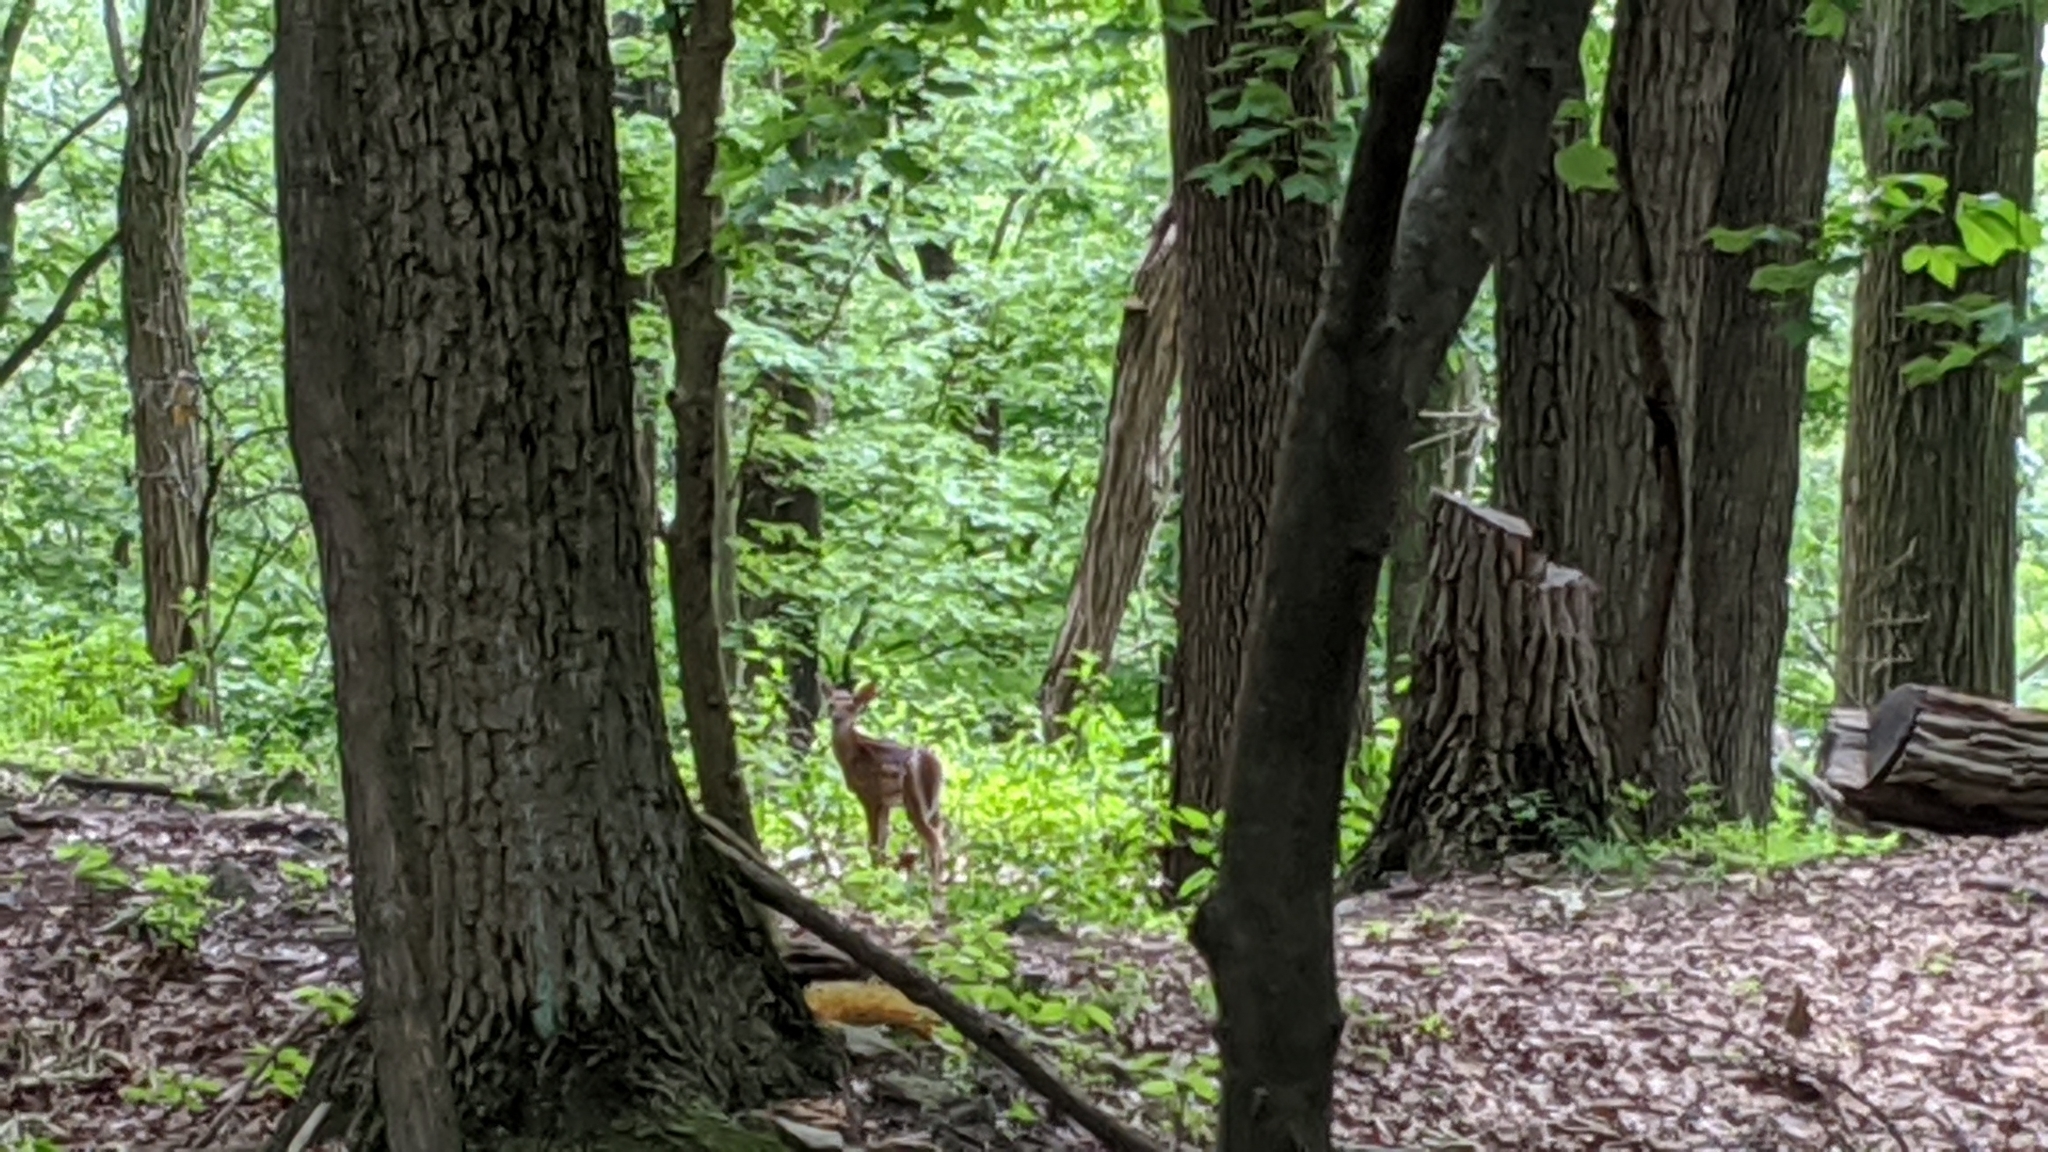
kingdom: Animalia
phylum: Chordata
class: Mammalia
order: Artiodactyla
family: Cervidae
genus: Odocoileus
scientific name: Odocoileus virginianus
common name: White-tailed deer
